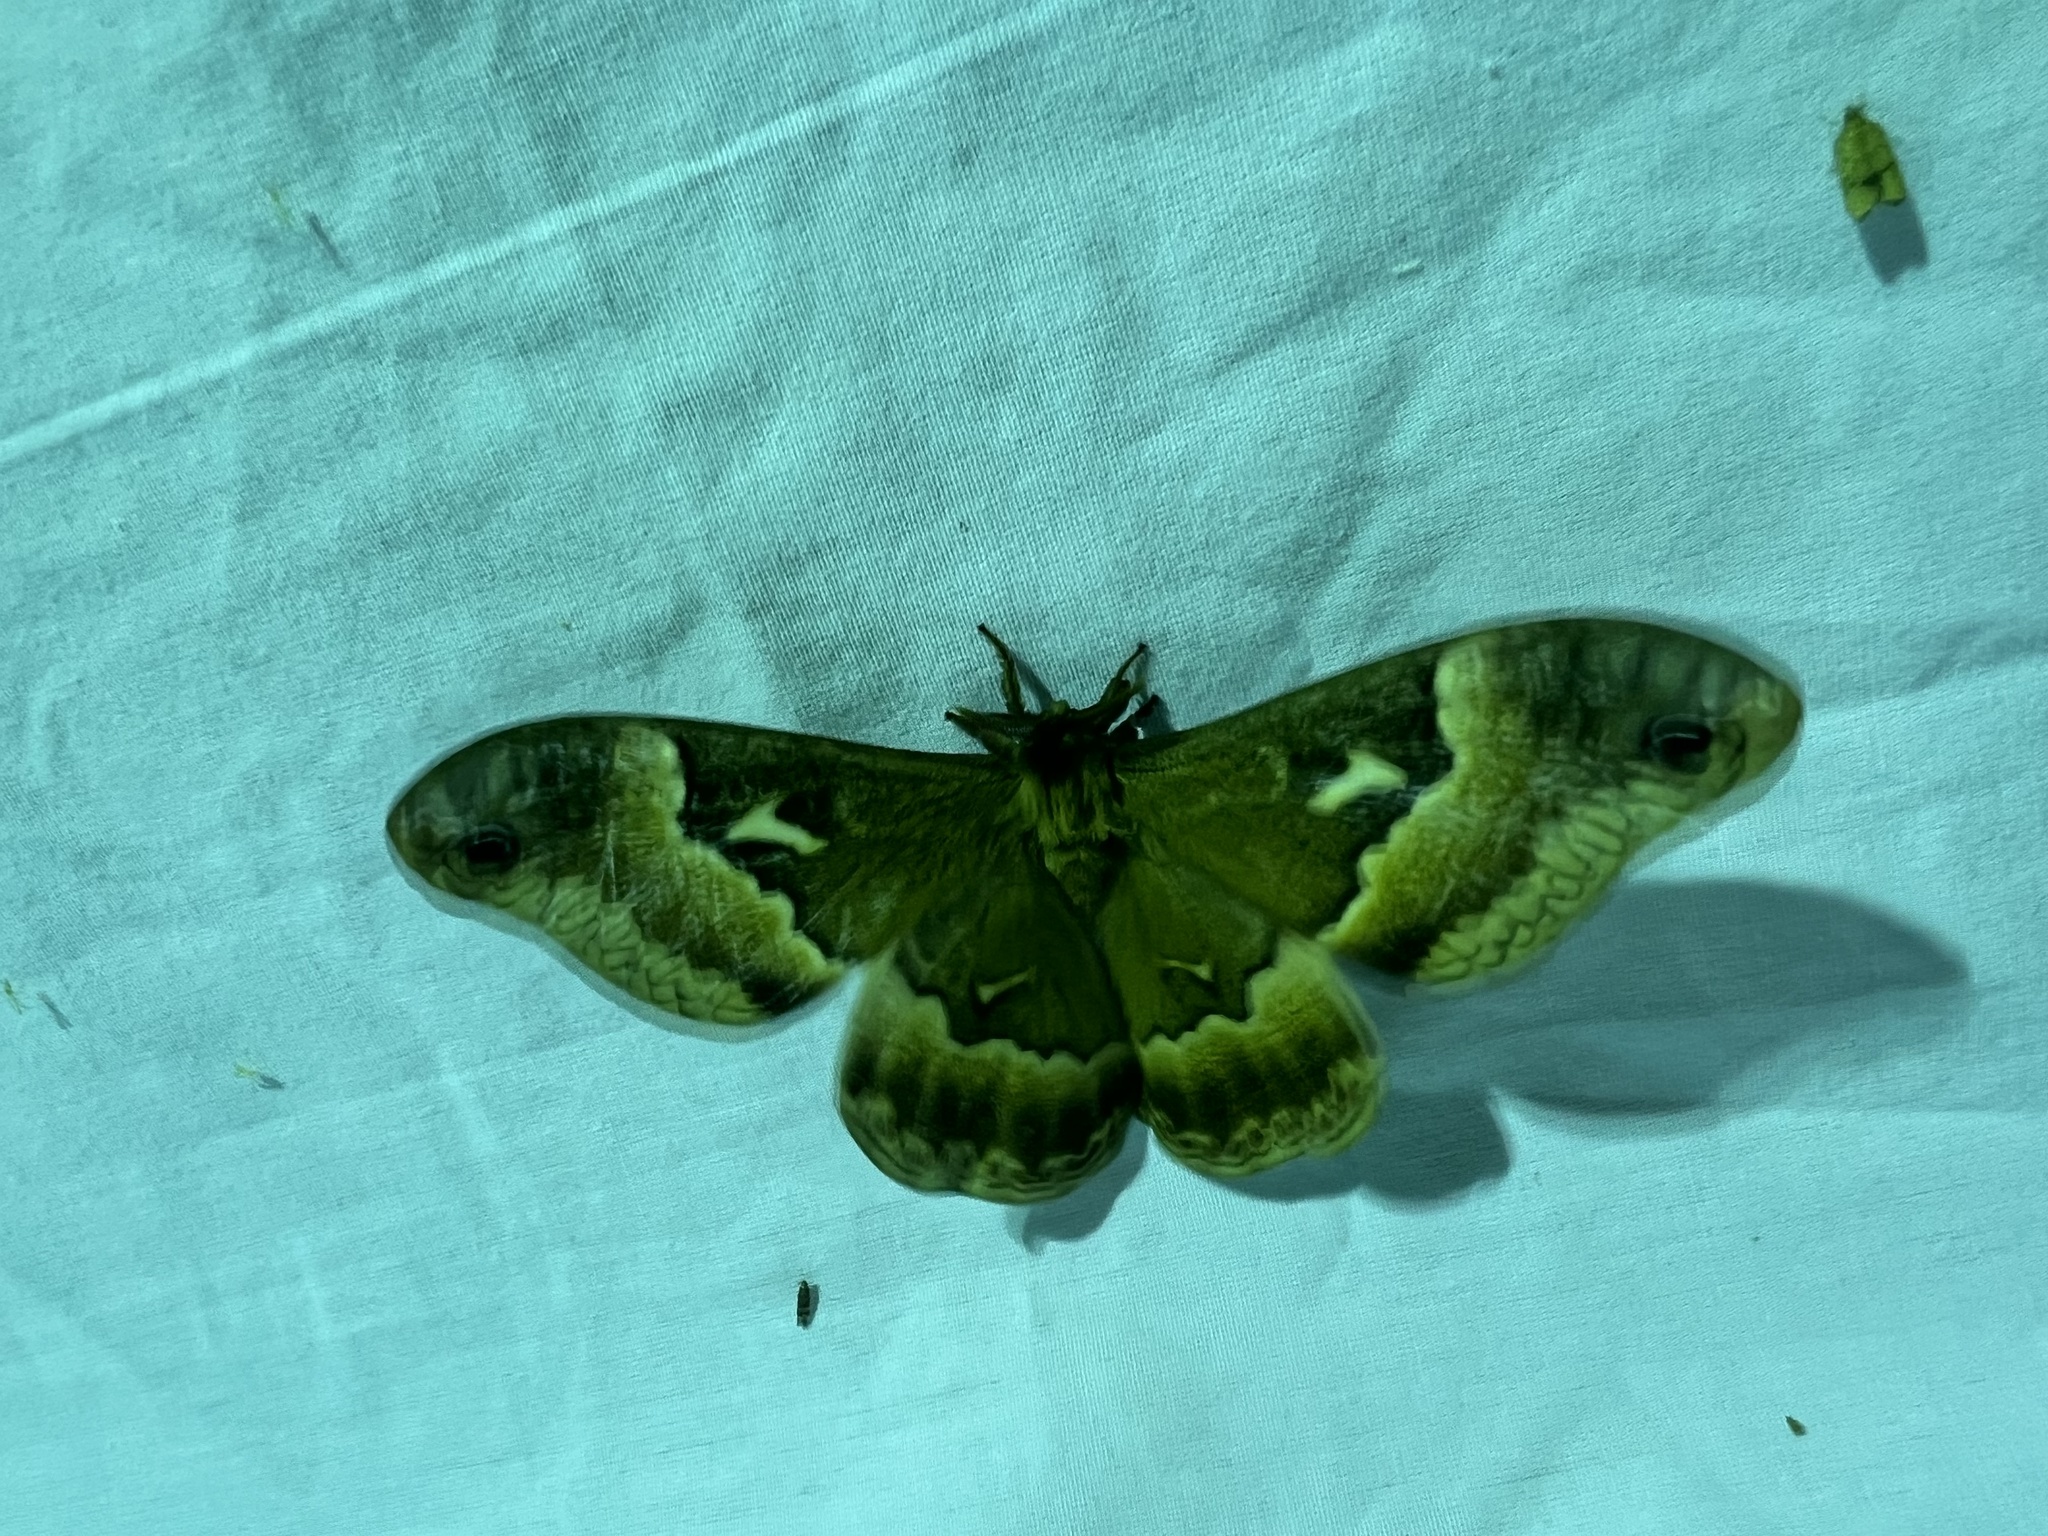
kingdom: Animalia
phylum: Arthropoda
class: Insecta
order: Lepidoptera
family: Saturniidae
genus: Callosamia
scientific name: Callosamia angulifera
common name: Tulip tree silkmoth
